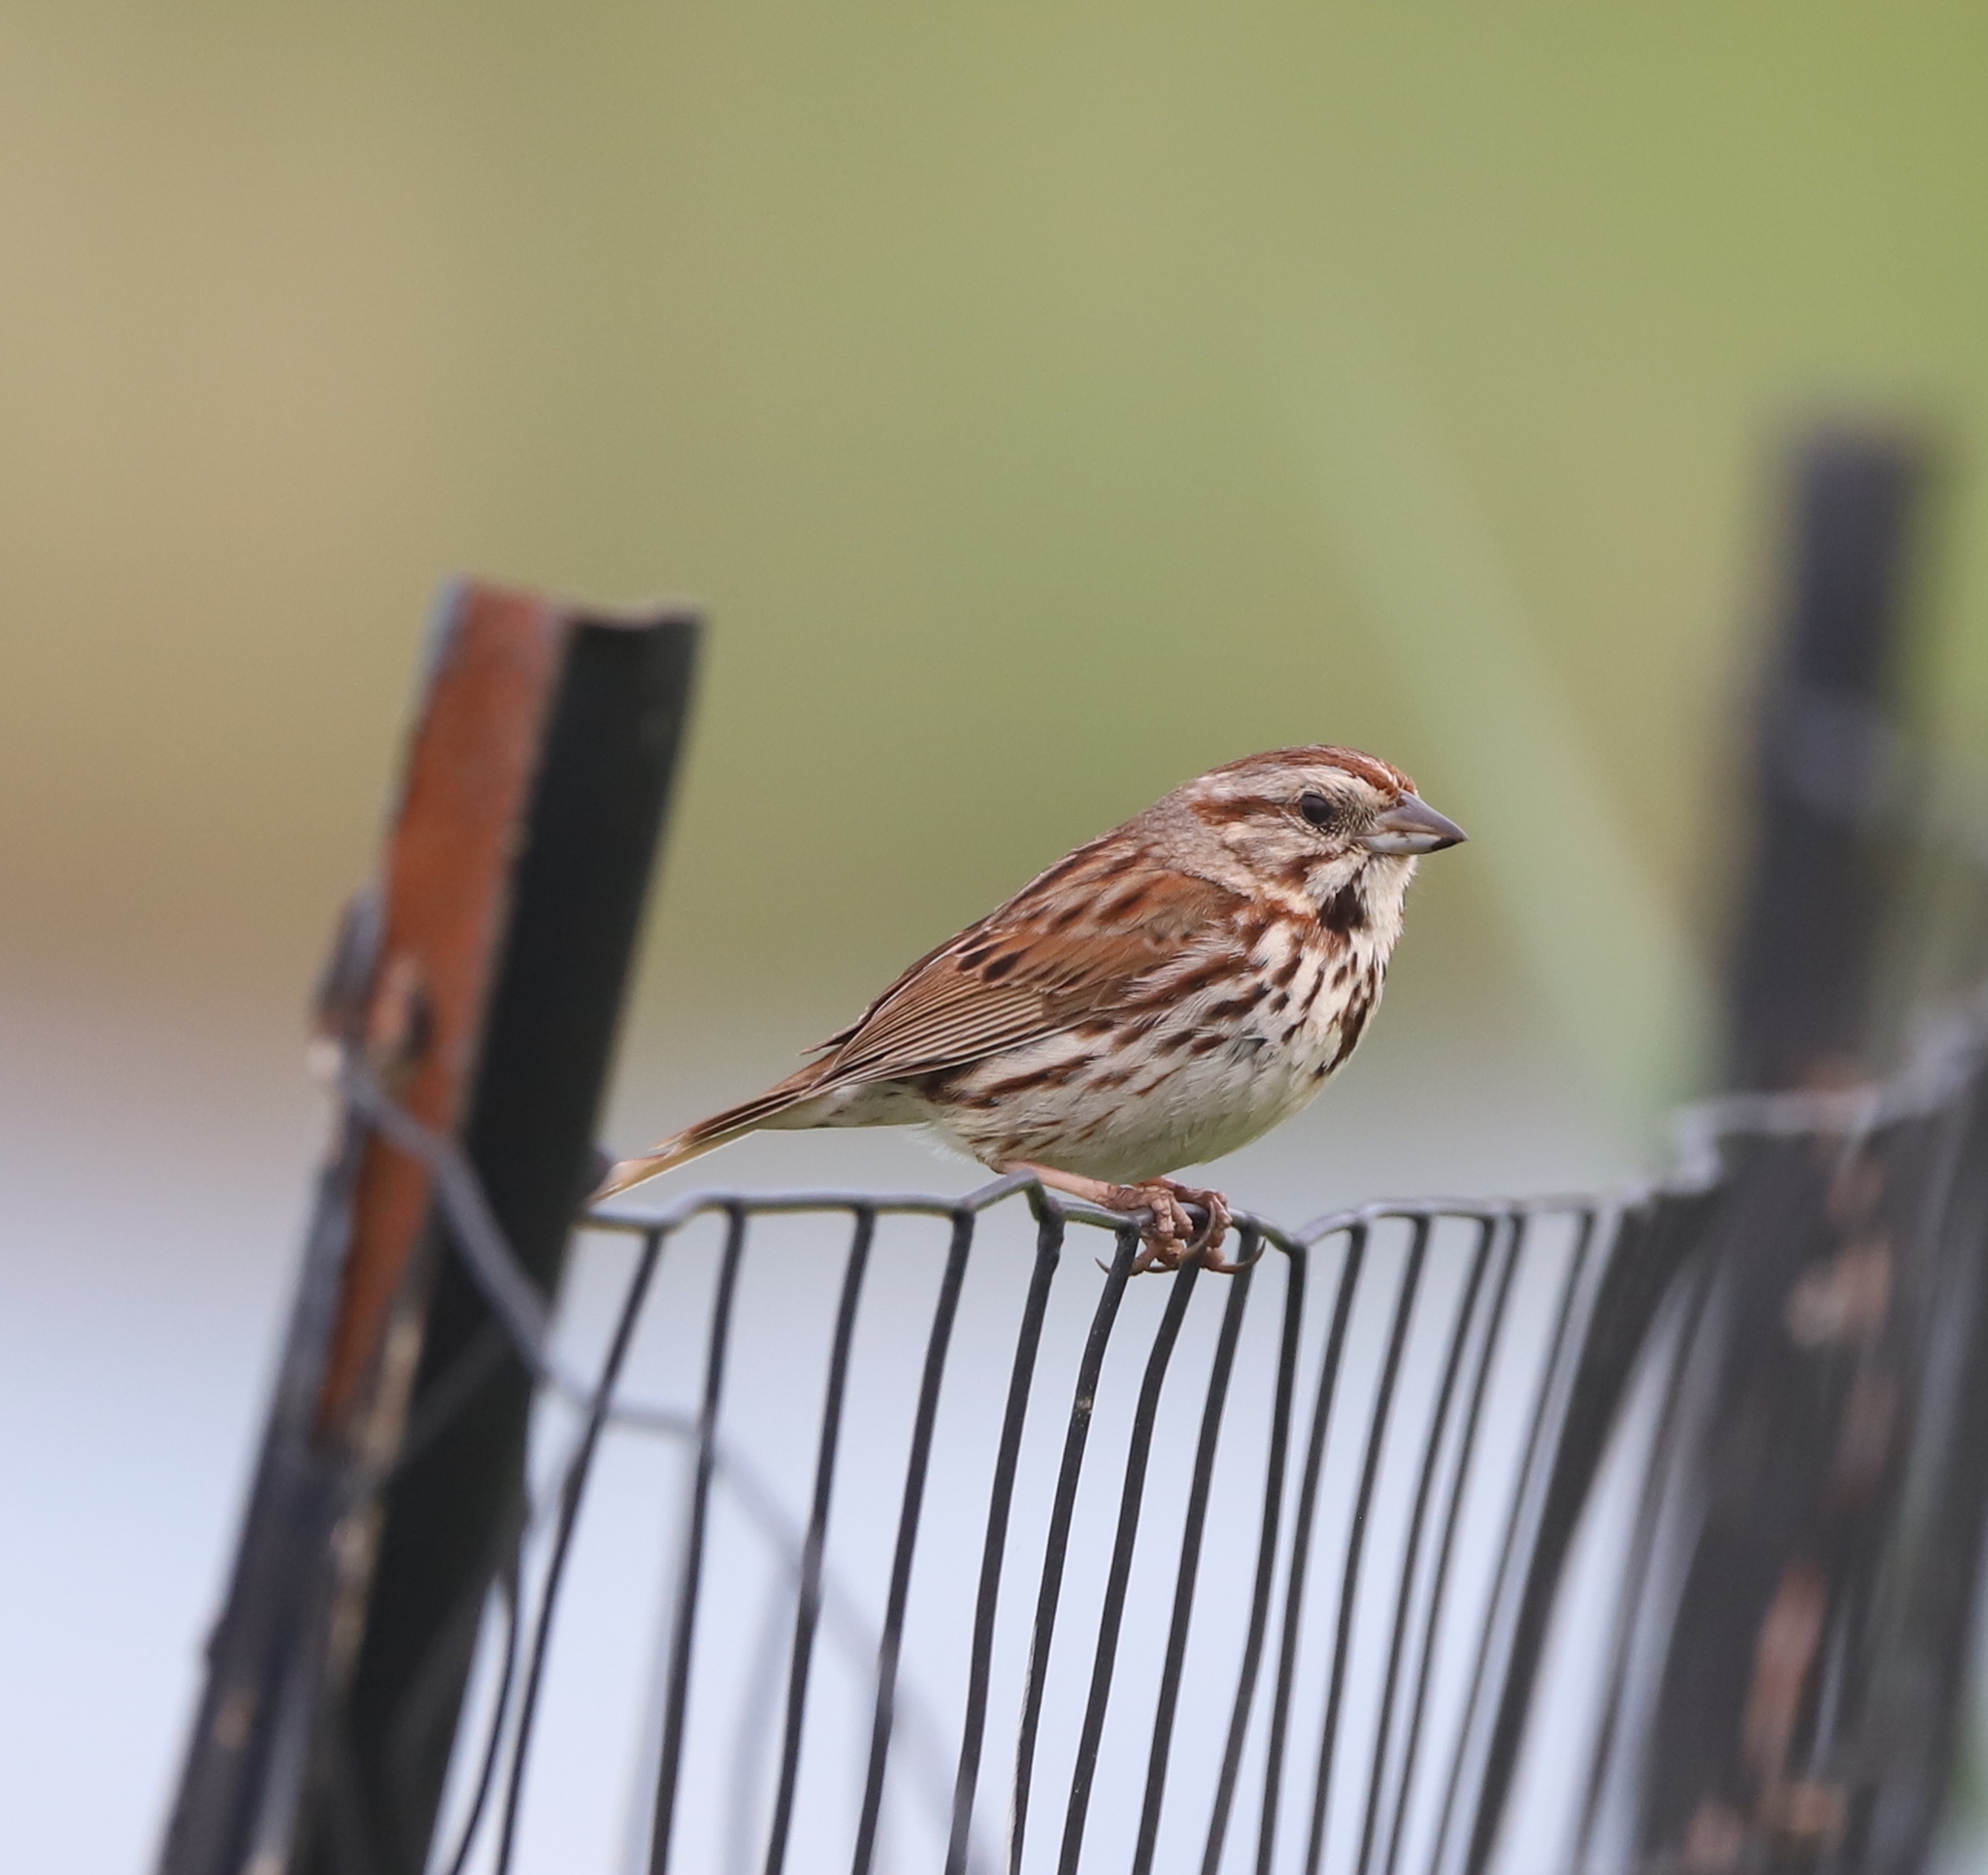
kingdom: Animalia
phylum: Chordata
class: Aves
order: Passeriformes
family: Passerellidae
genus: Melospiza
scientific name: Melospiza melodia
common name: Song sparrow
